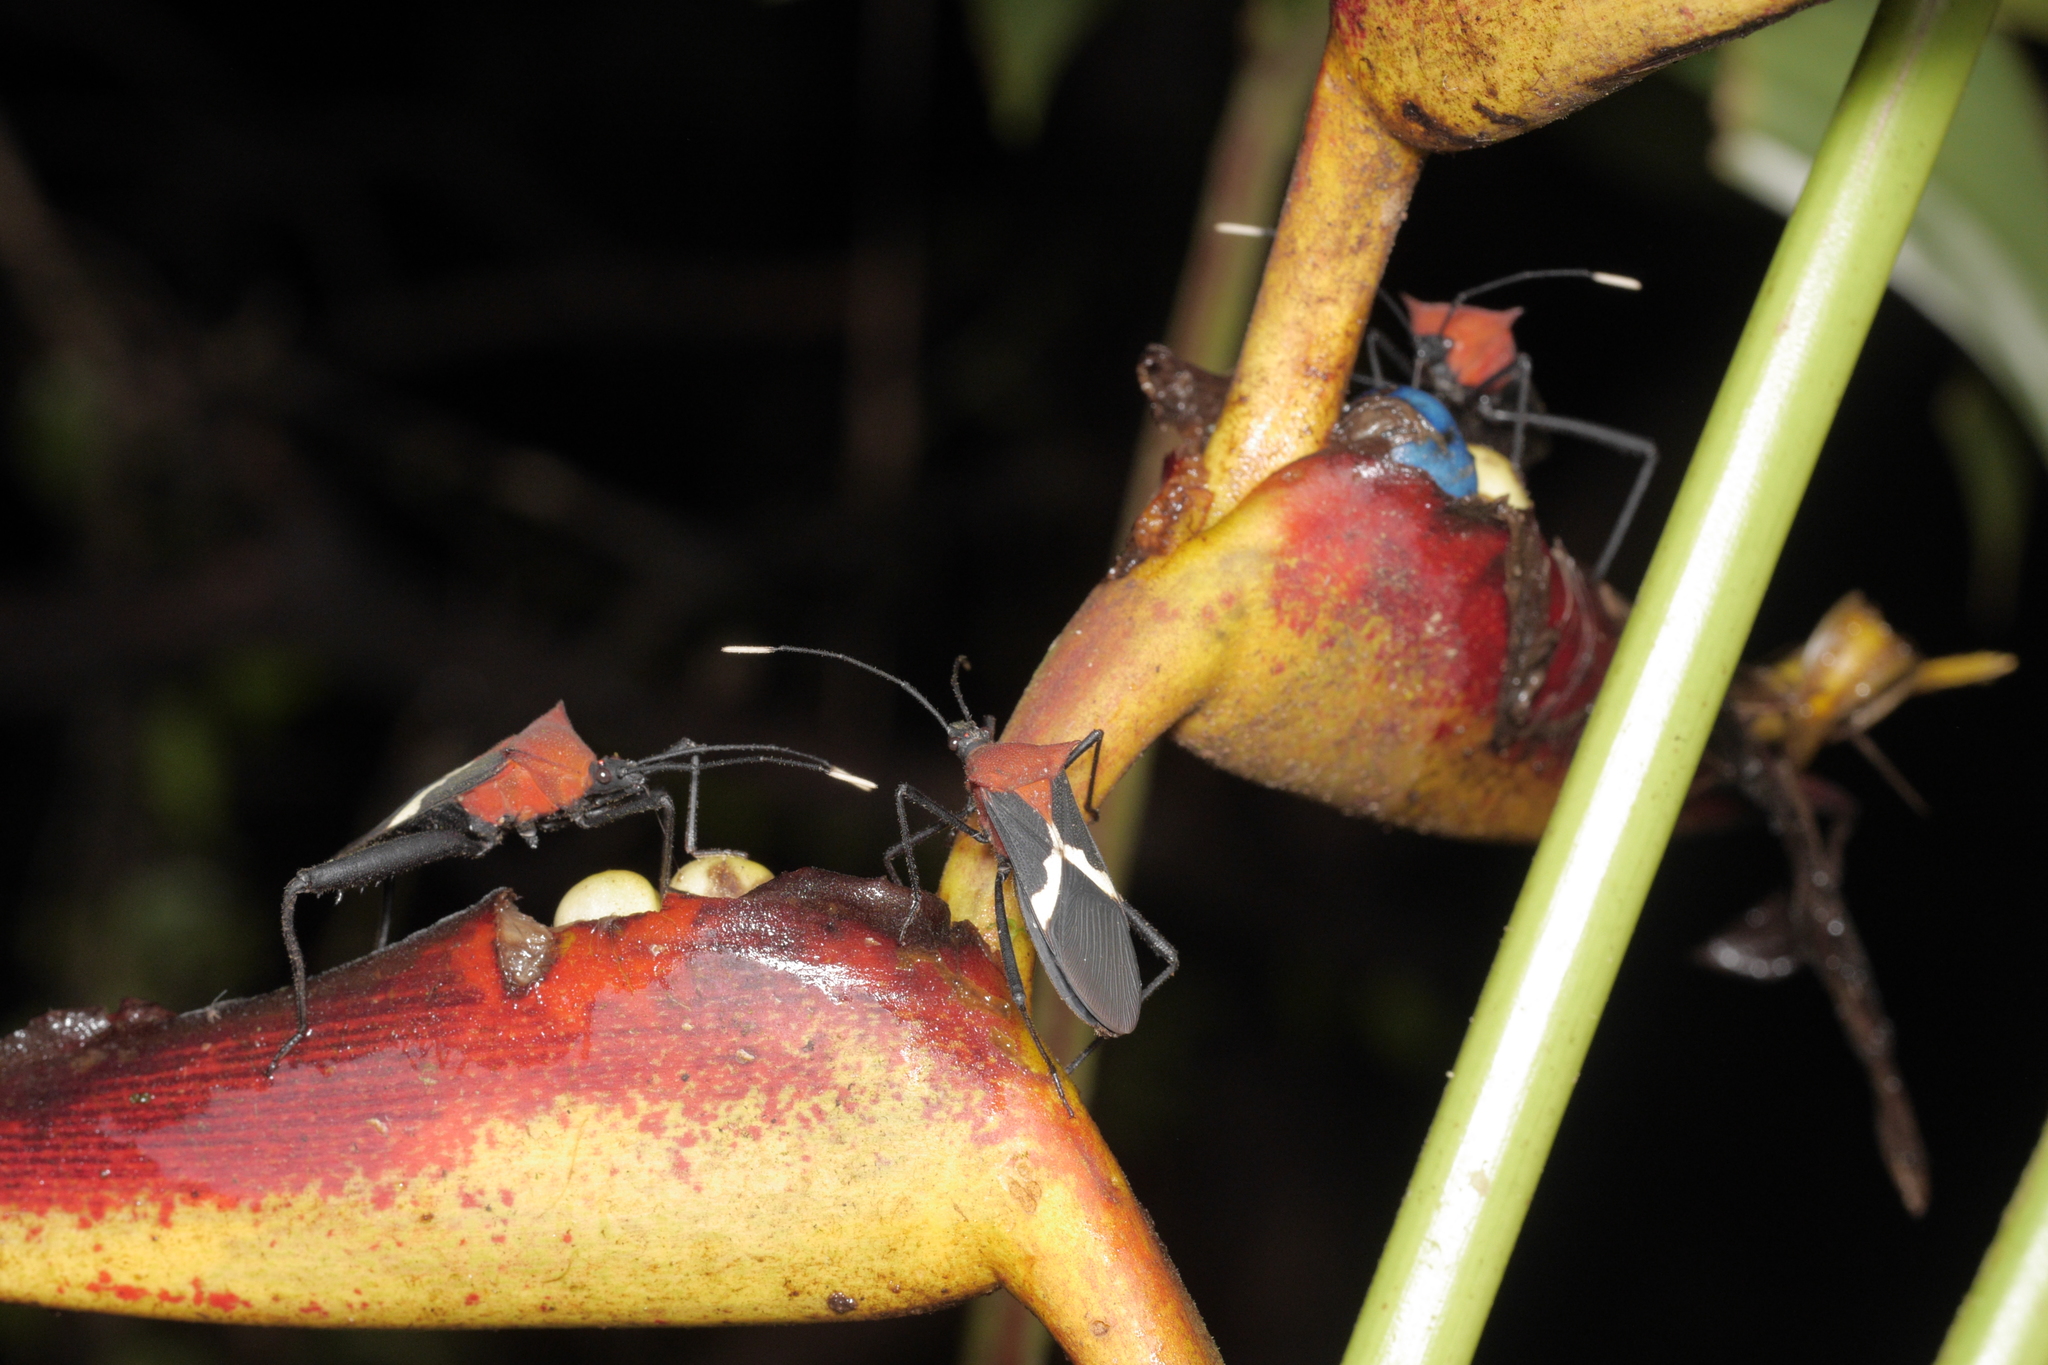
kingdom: Animalia
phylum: Arthropoda
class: Insecta
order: Hemiptera
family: Coreidae
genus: Leptoscelis
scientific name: Leptoscelis militaris
